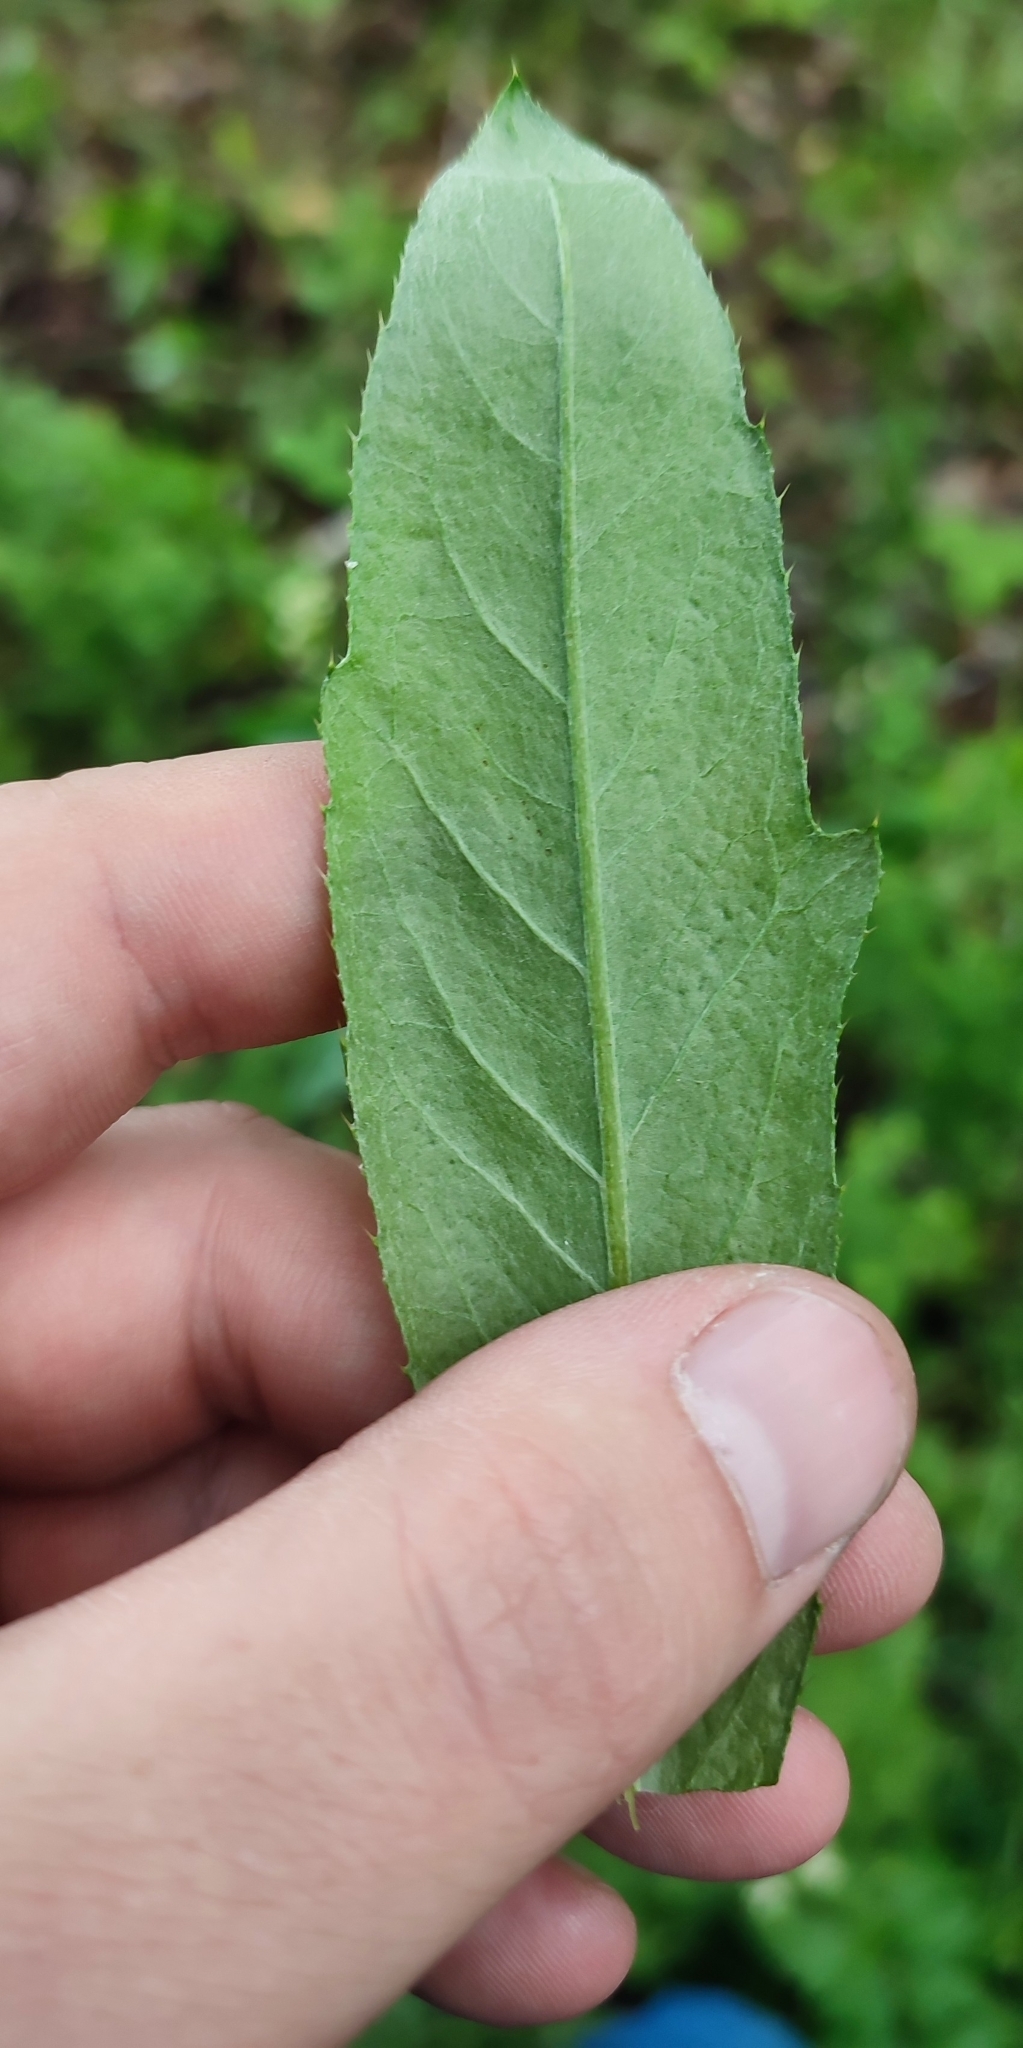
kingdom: Plantae
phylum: Tracheophyta
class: Magnoliopsida
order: Asterales
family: Asteraceae
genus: Cirsium
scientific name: Cirsium arvense
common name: Creeping thistle
